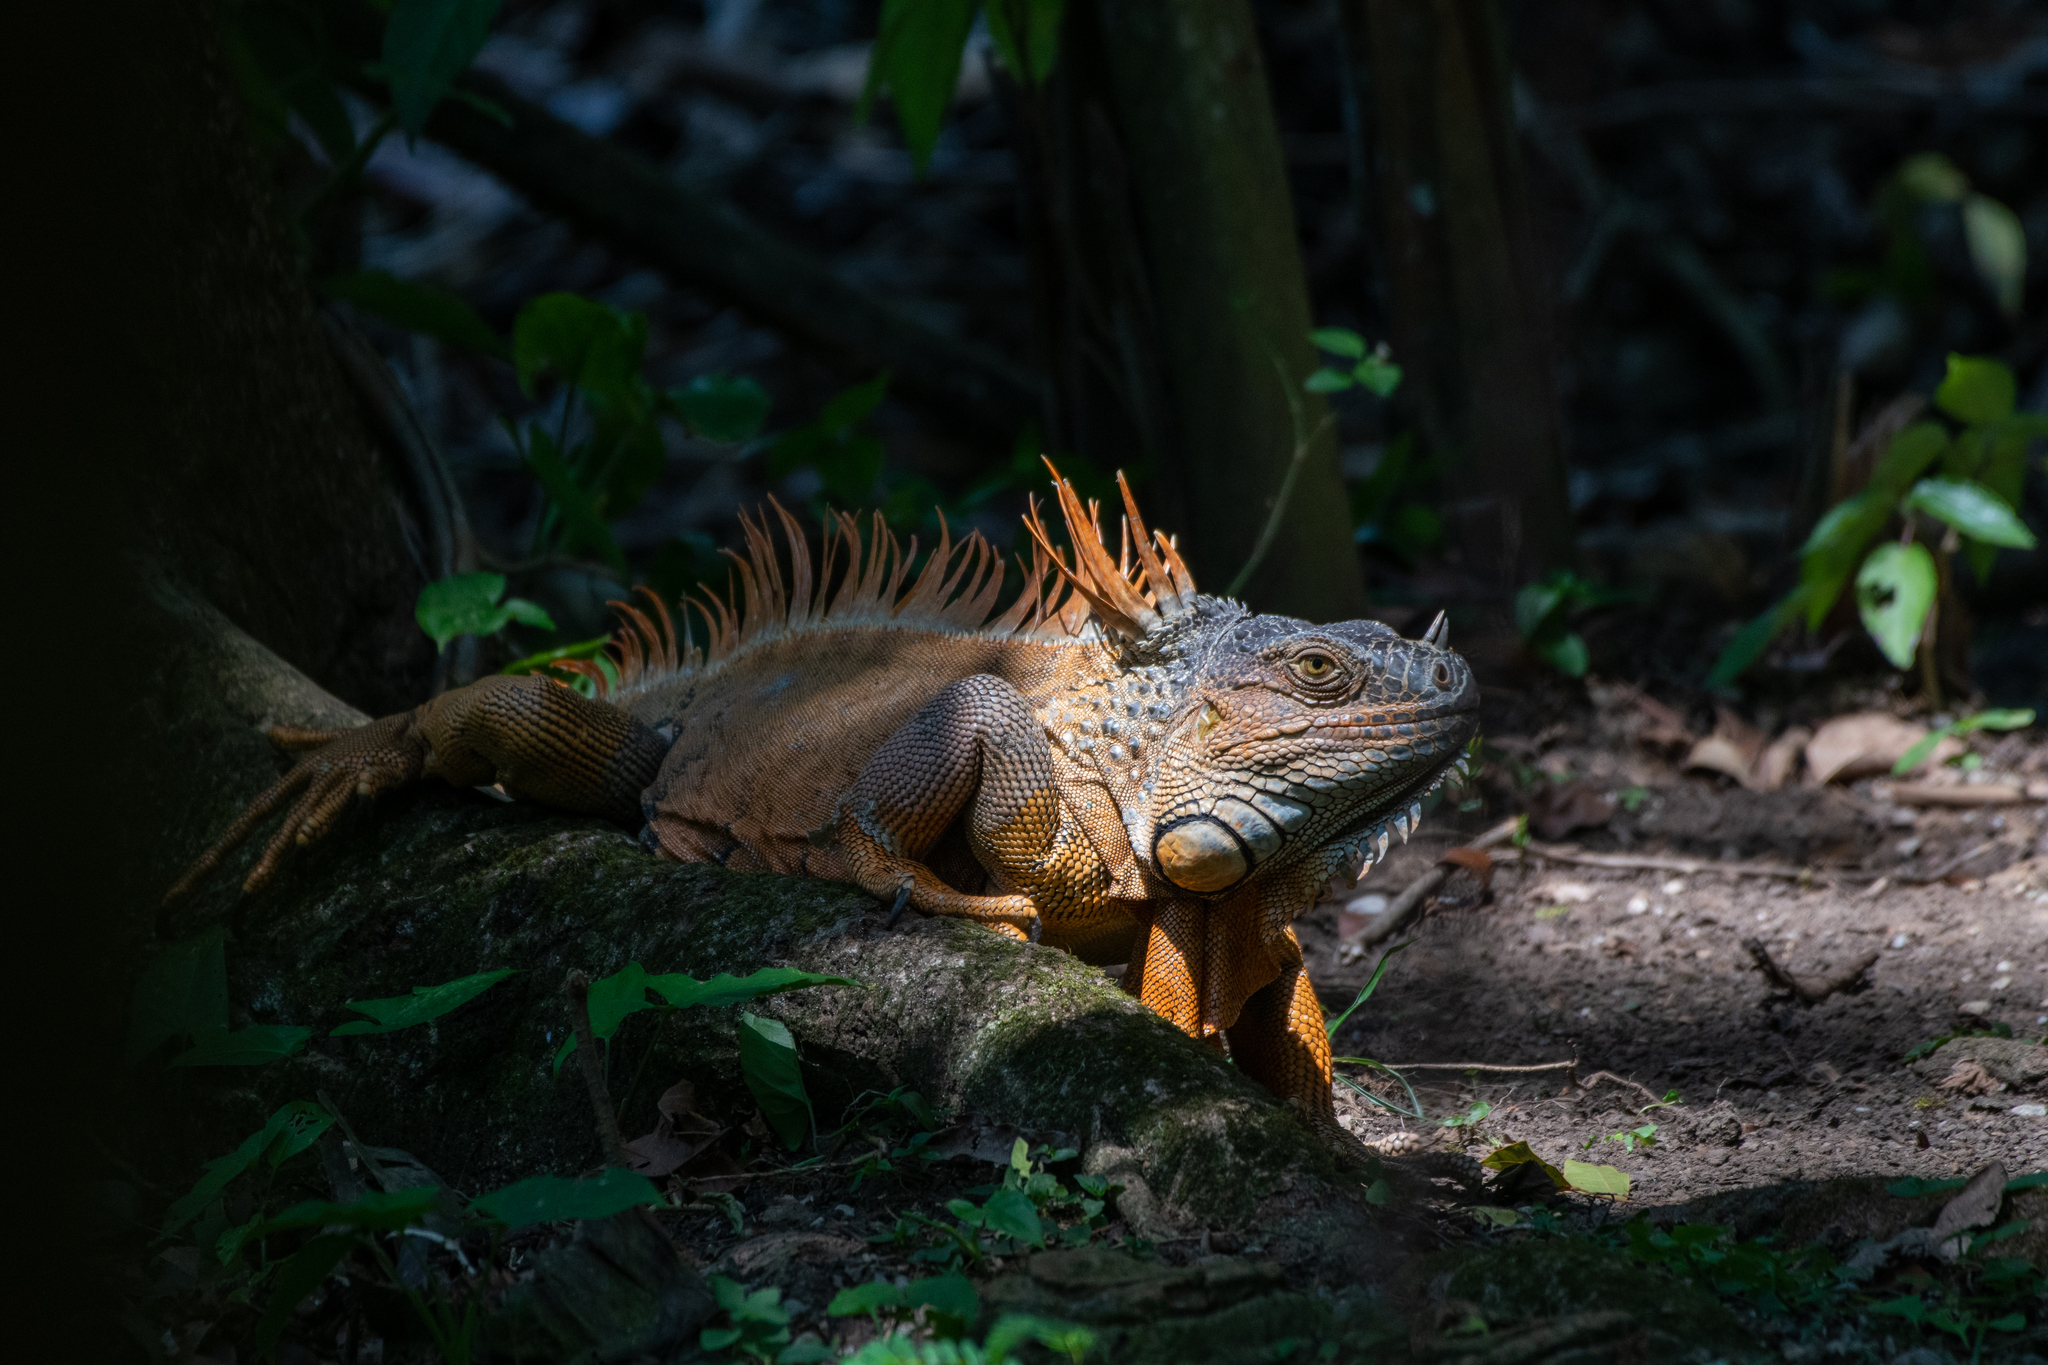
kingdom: Animalia
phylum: Chordata
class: Squamata
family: Iguanidae
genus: Iguana
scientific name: Iguana iguana
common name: Green iguana
